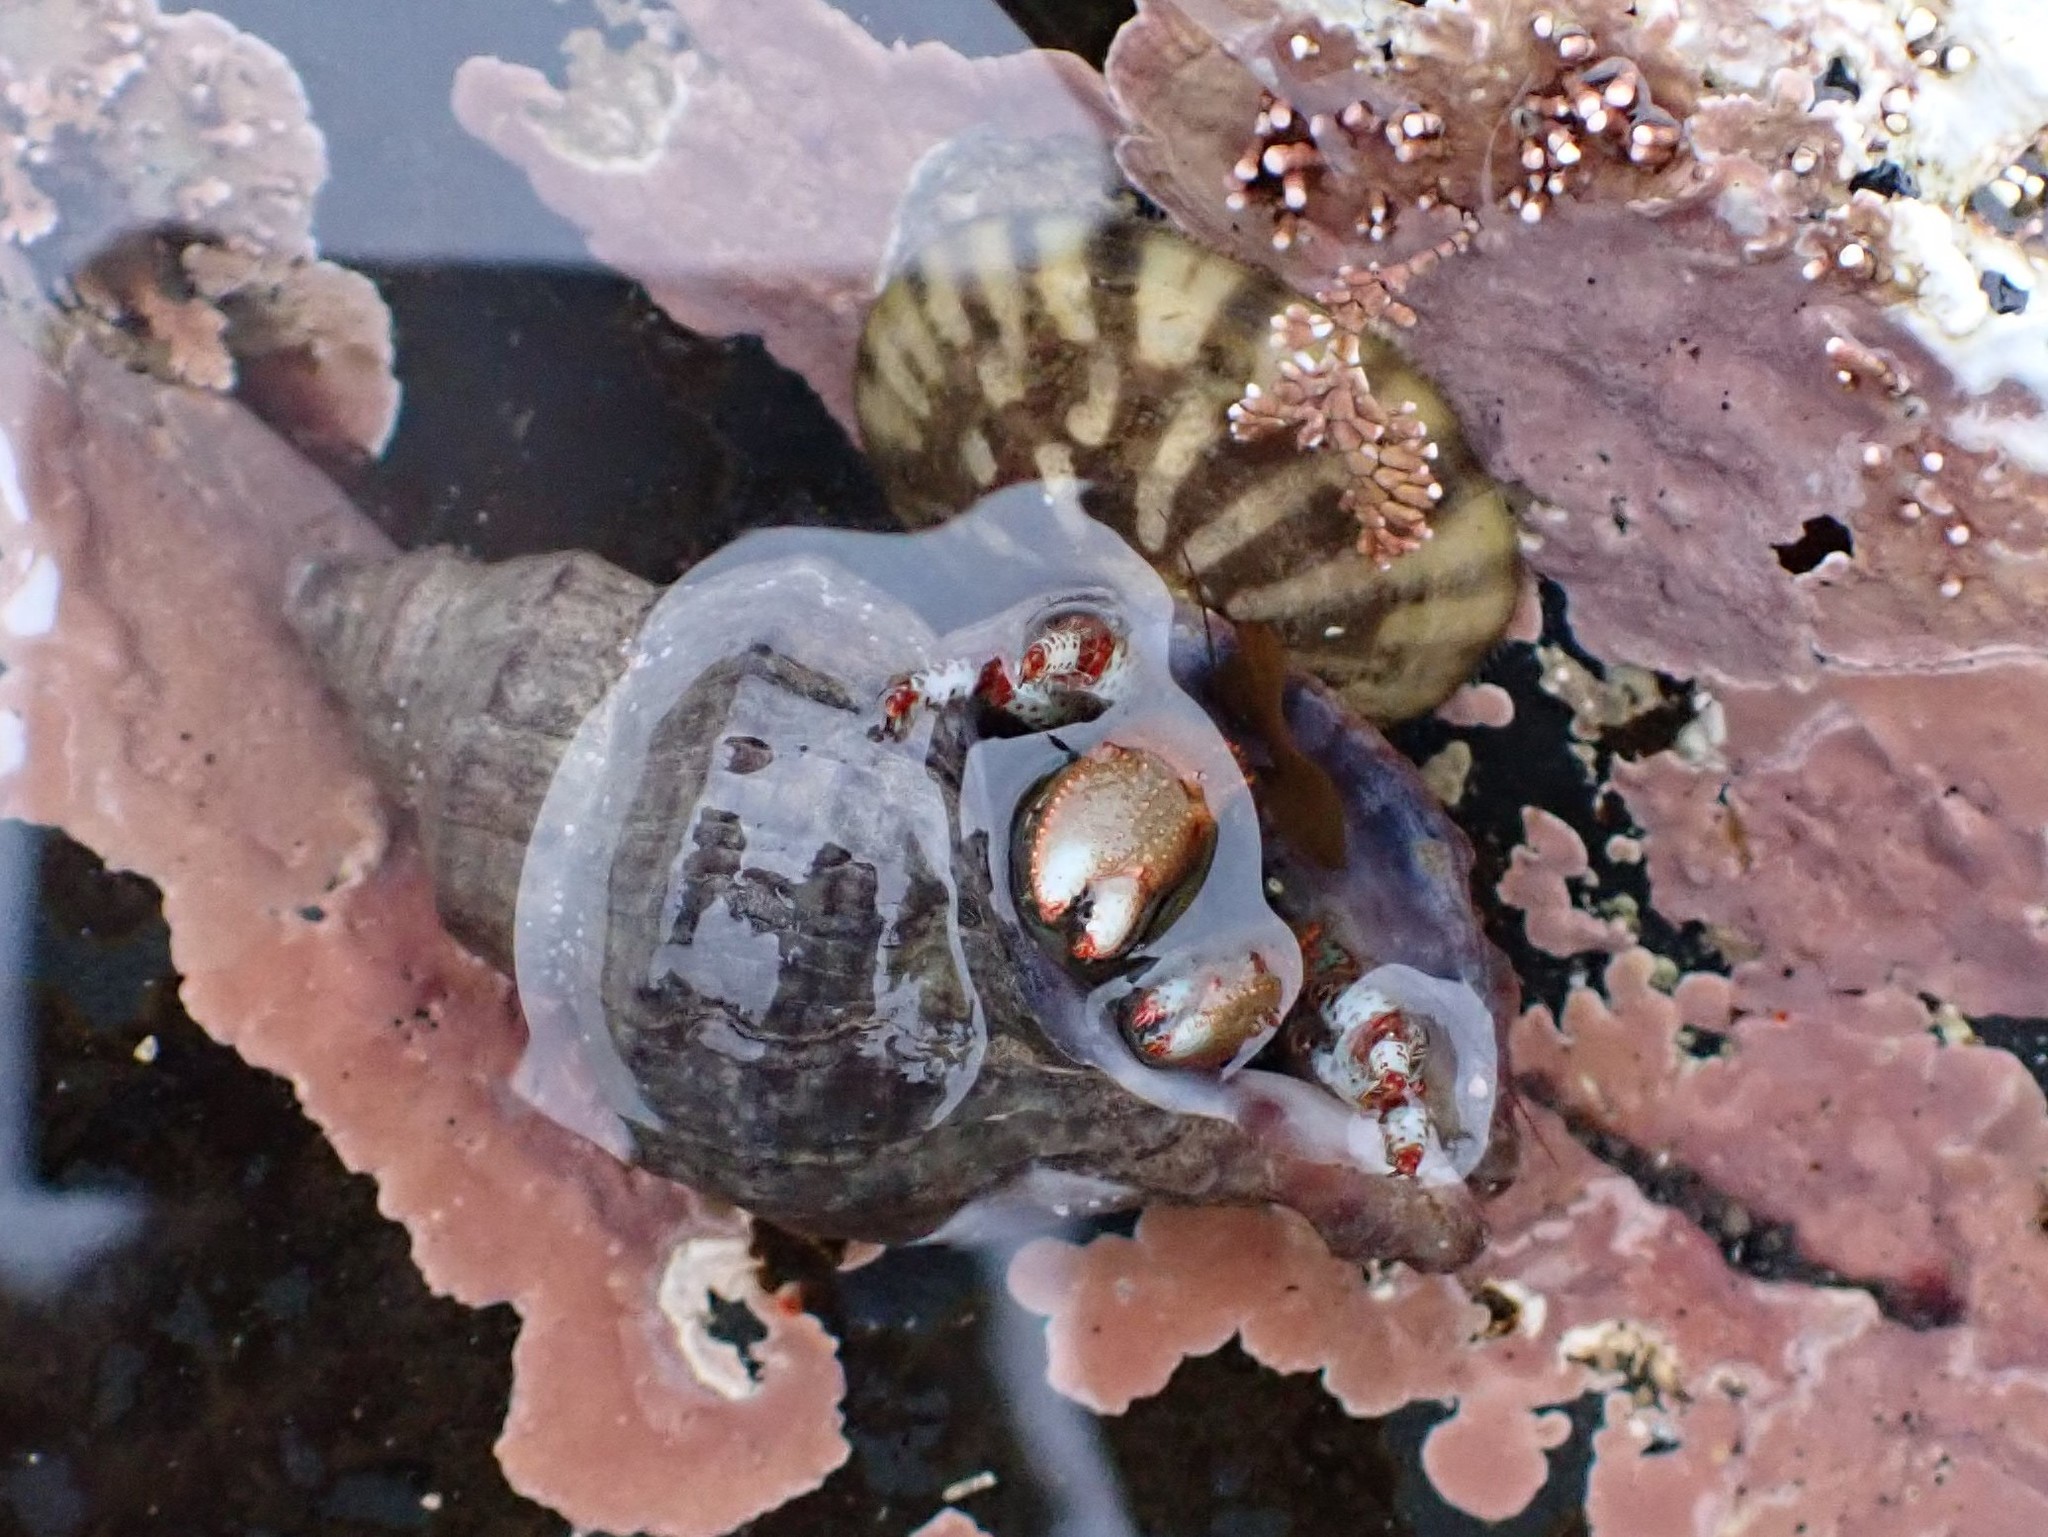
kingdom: Animalia
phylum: Arthropoda
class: Malacostraca
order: Decapoda
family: Paguridae
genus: Pagurus
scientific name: Pagurus beringanus
